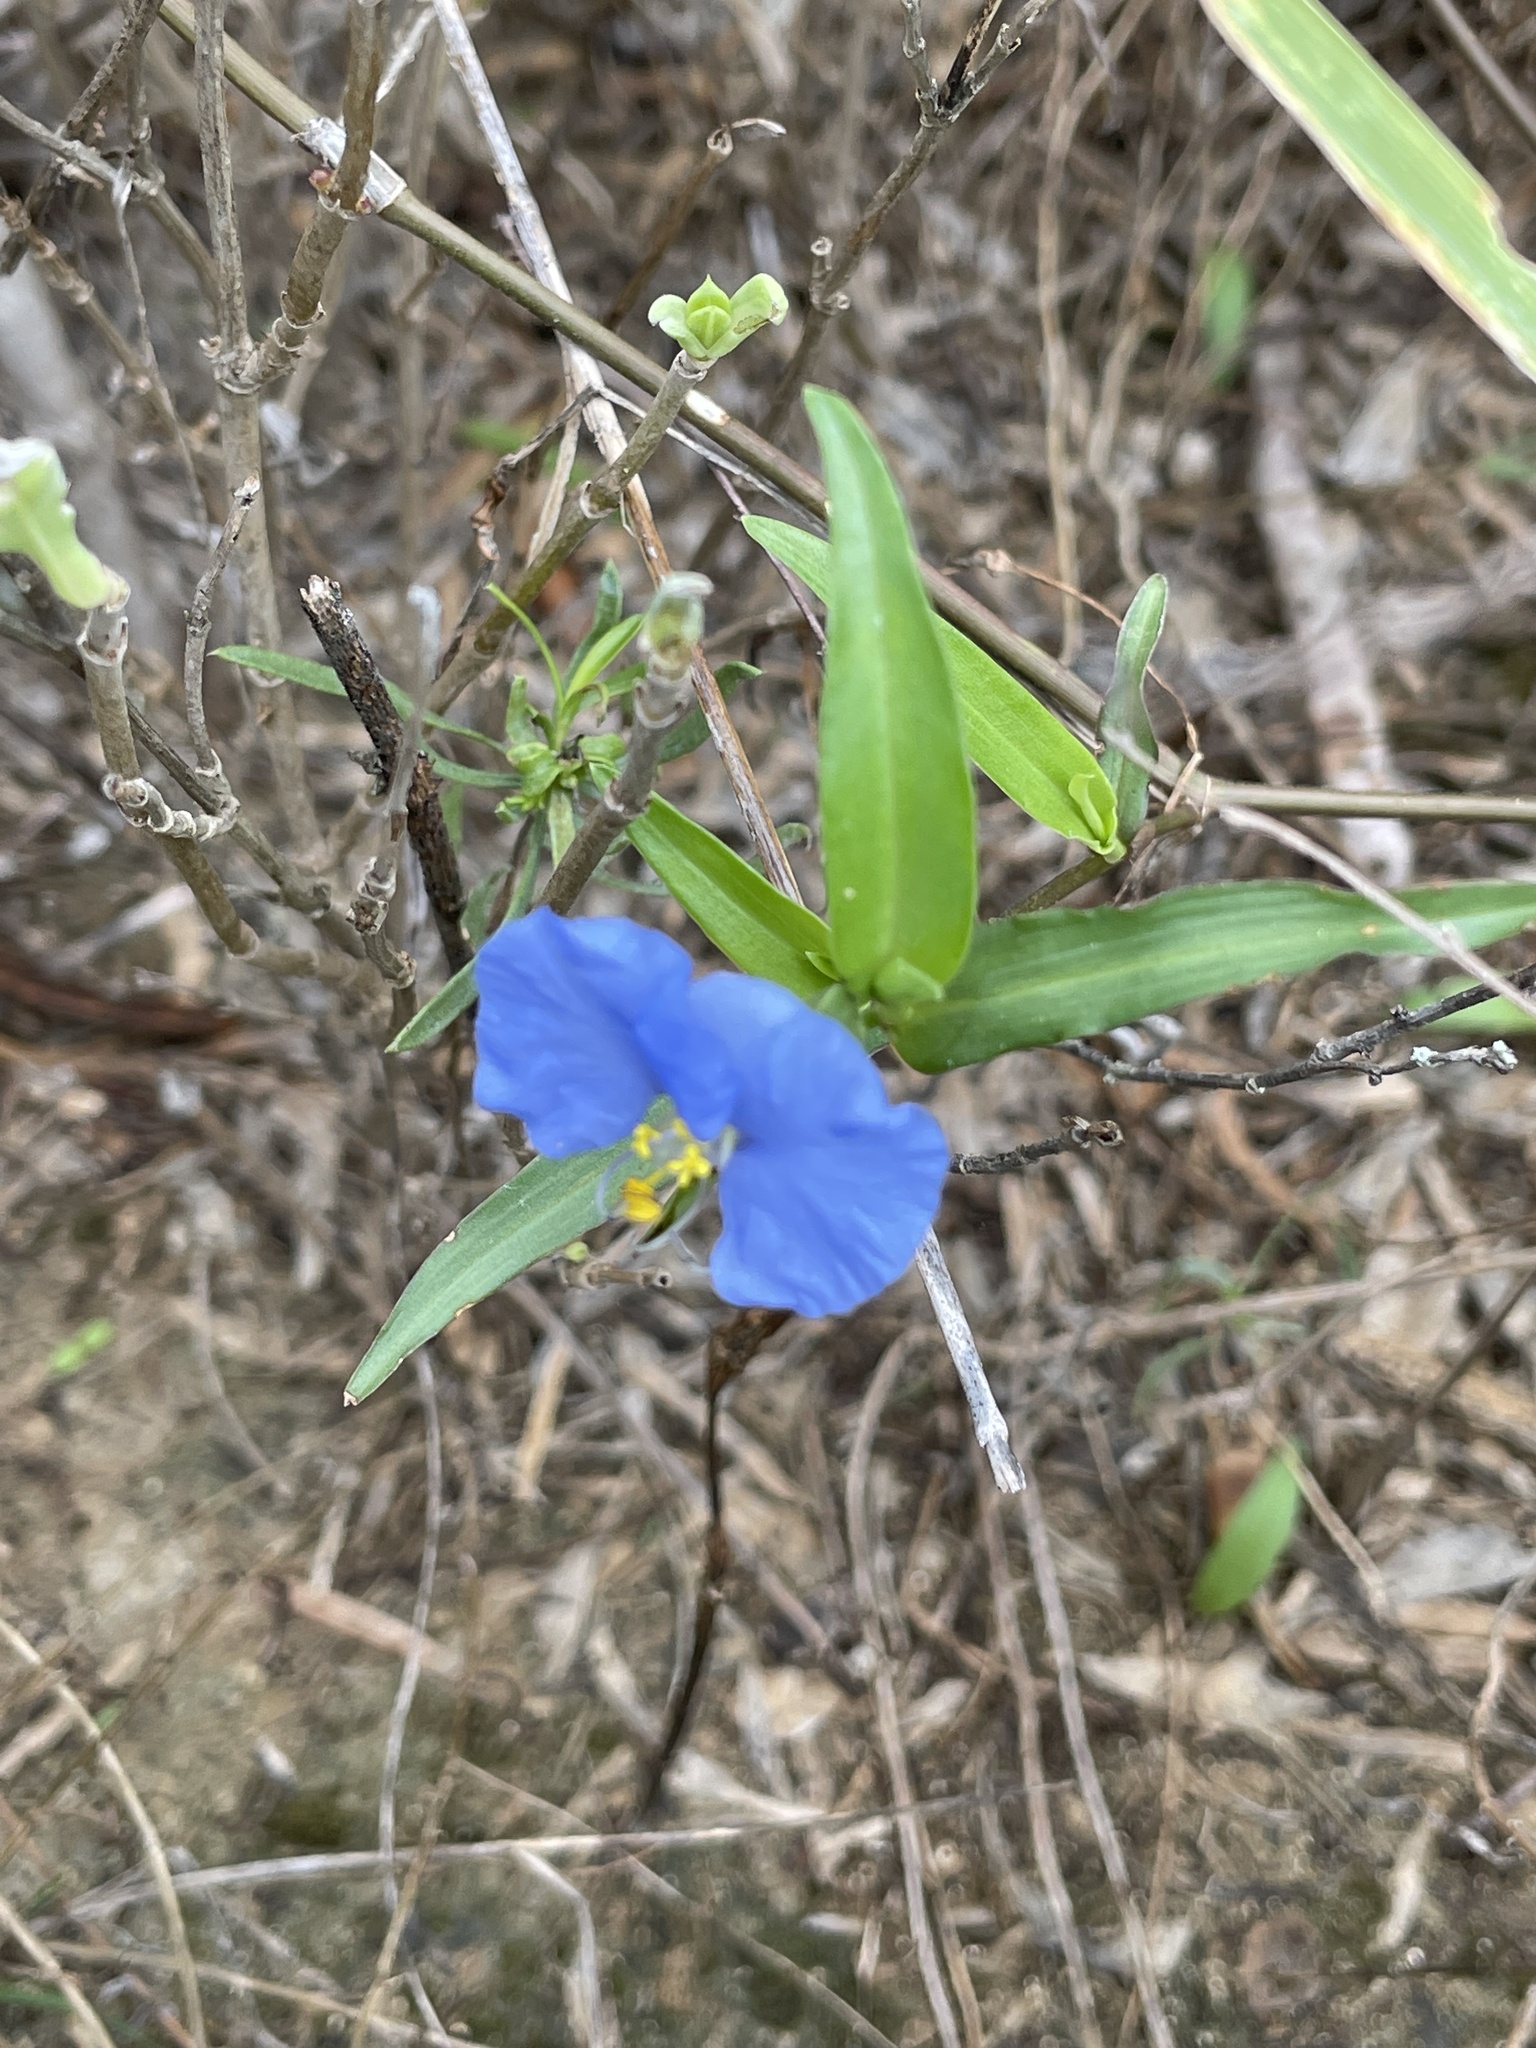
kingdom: Plantae
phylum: Tracheophyta
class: Liliopsida
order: Commelinales
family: Commelinaceae
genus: Commelina
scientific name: Commelina erecta
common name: Blousel blommetjie
